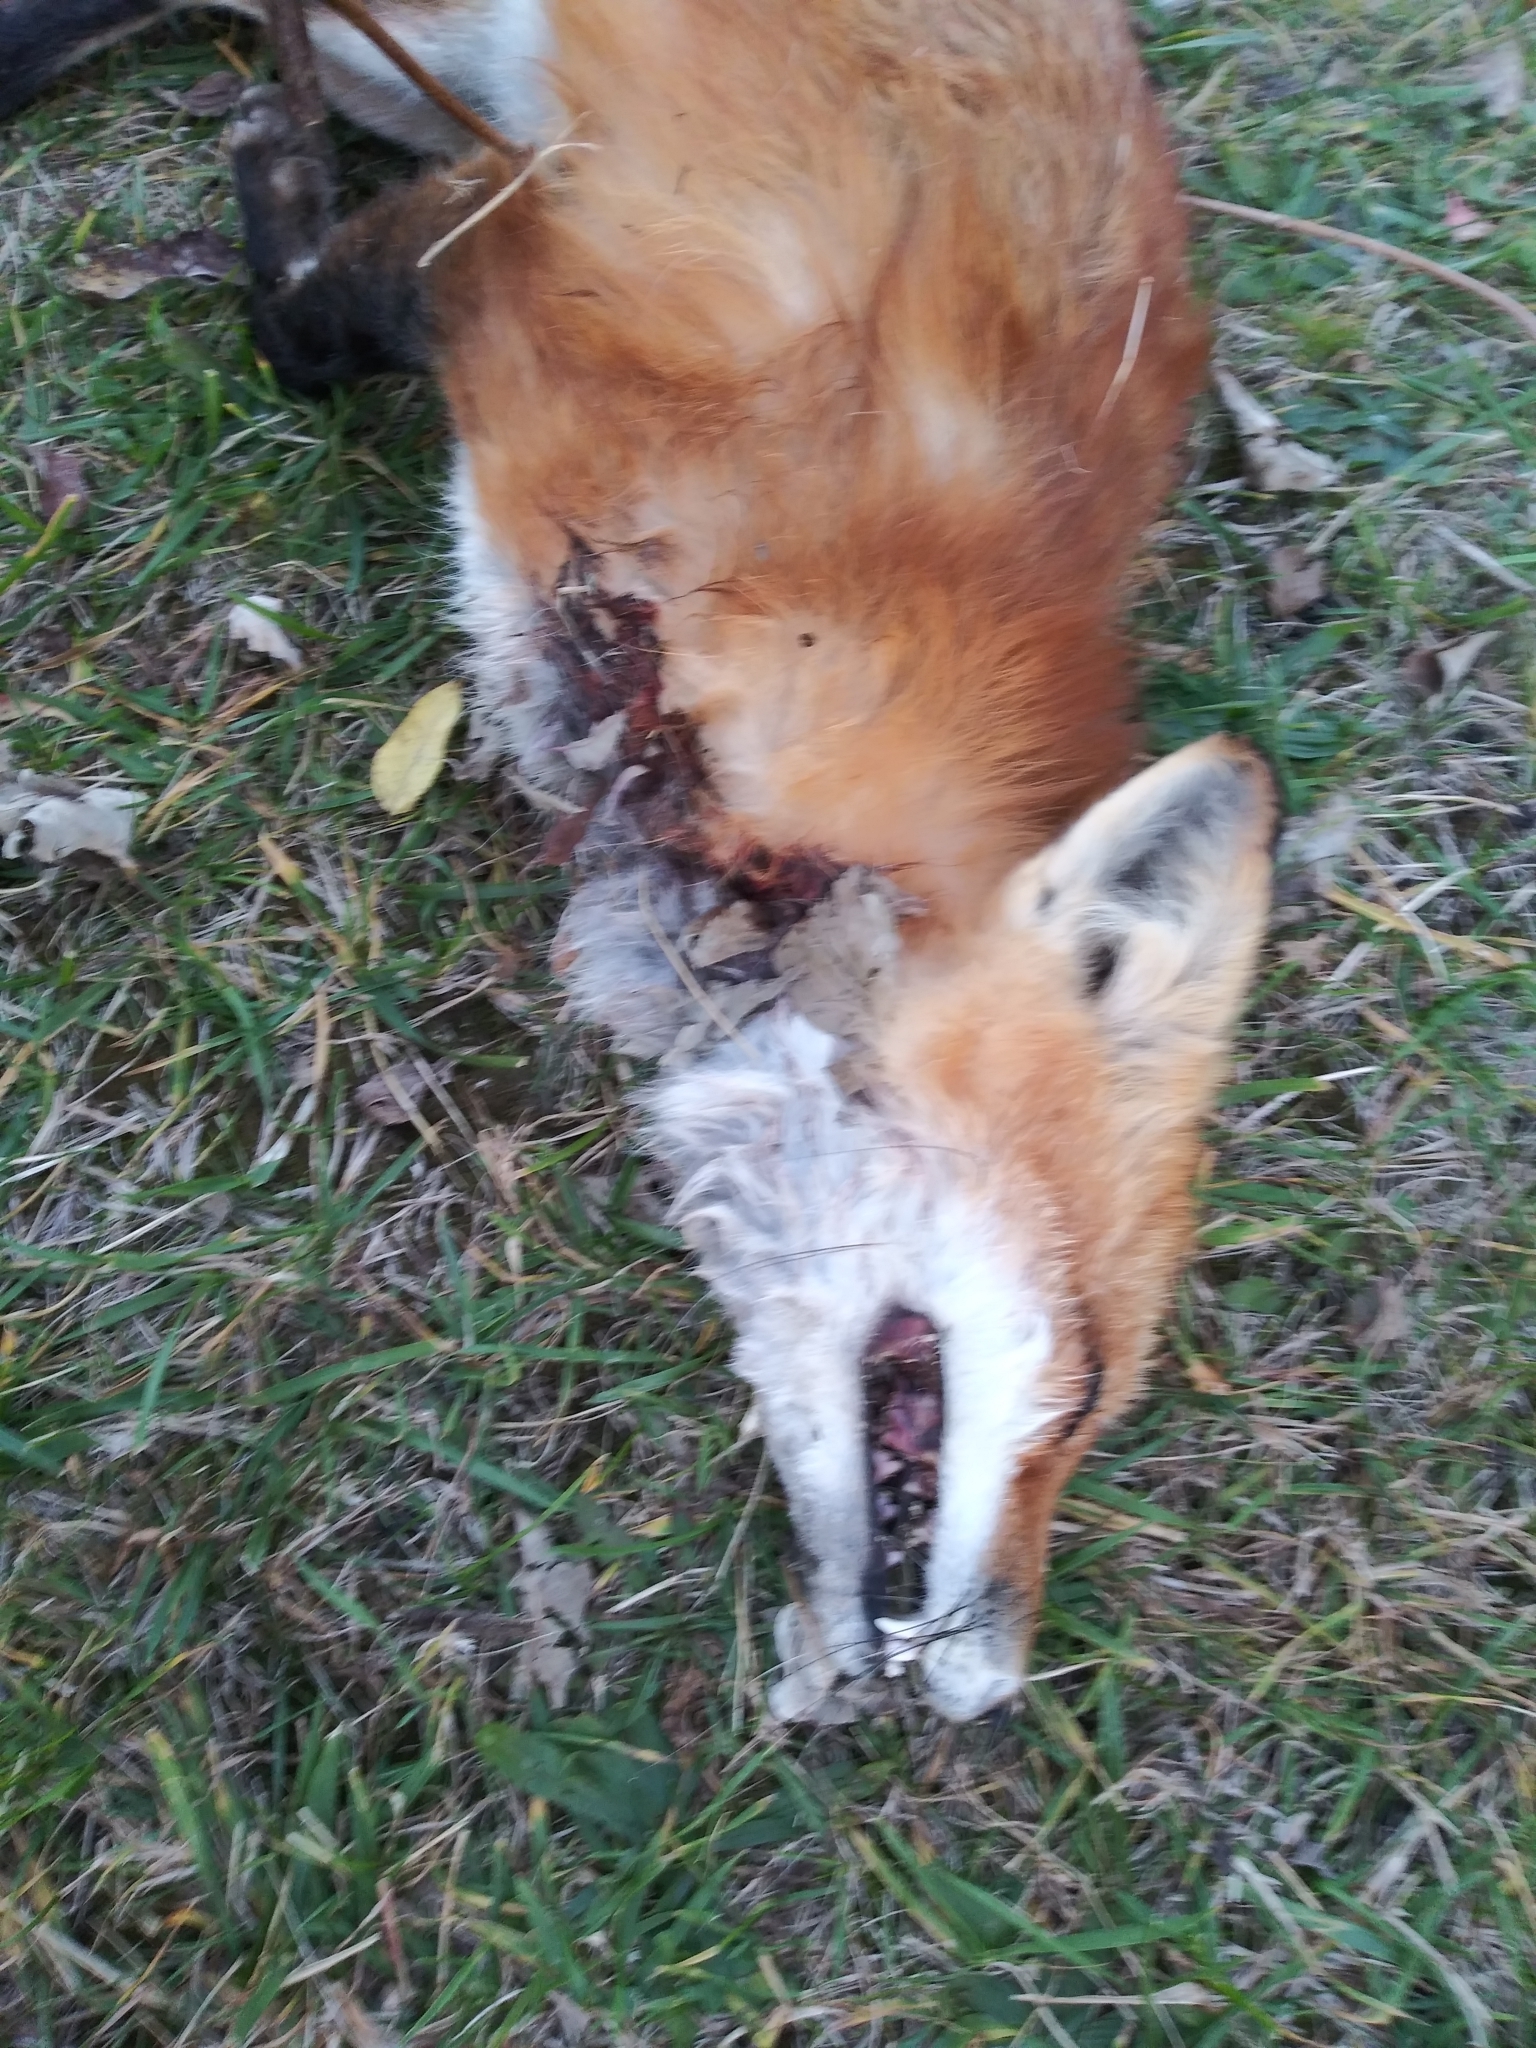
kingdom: Animalia
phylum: Chordata
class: Mammalia
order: Carnivora
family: Canidae
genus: Vulpes
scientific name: Vulpes vulpes
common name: Red fox
